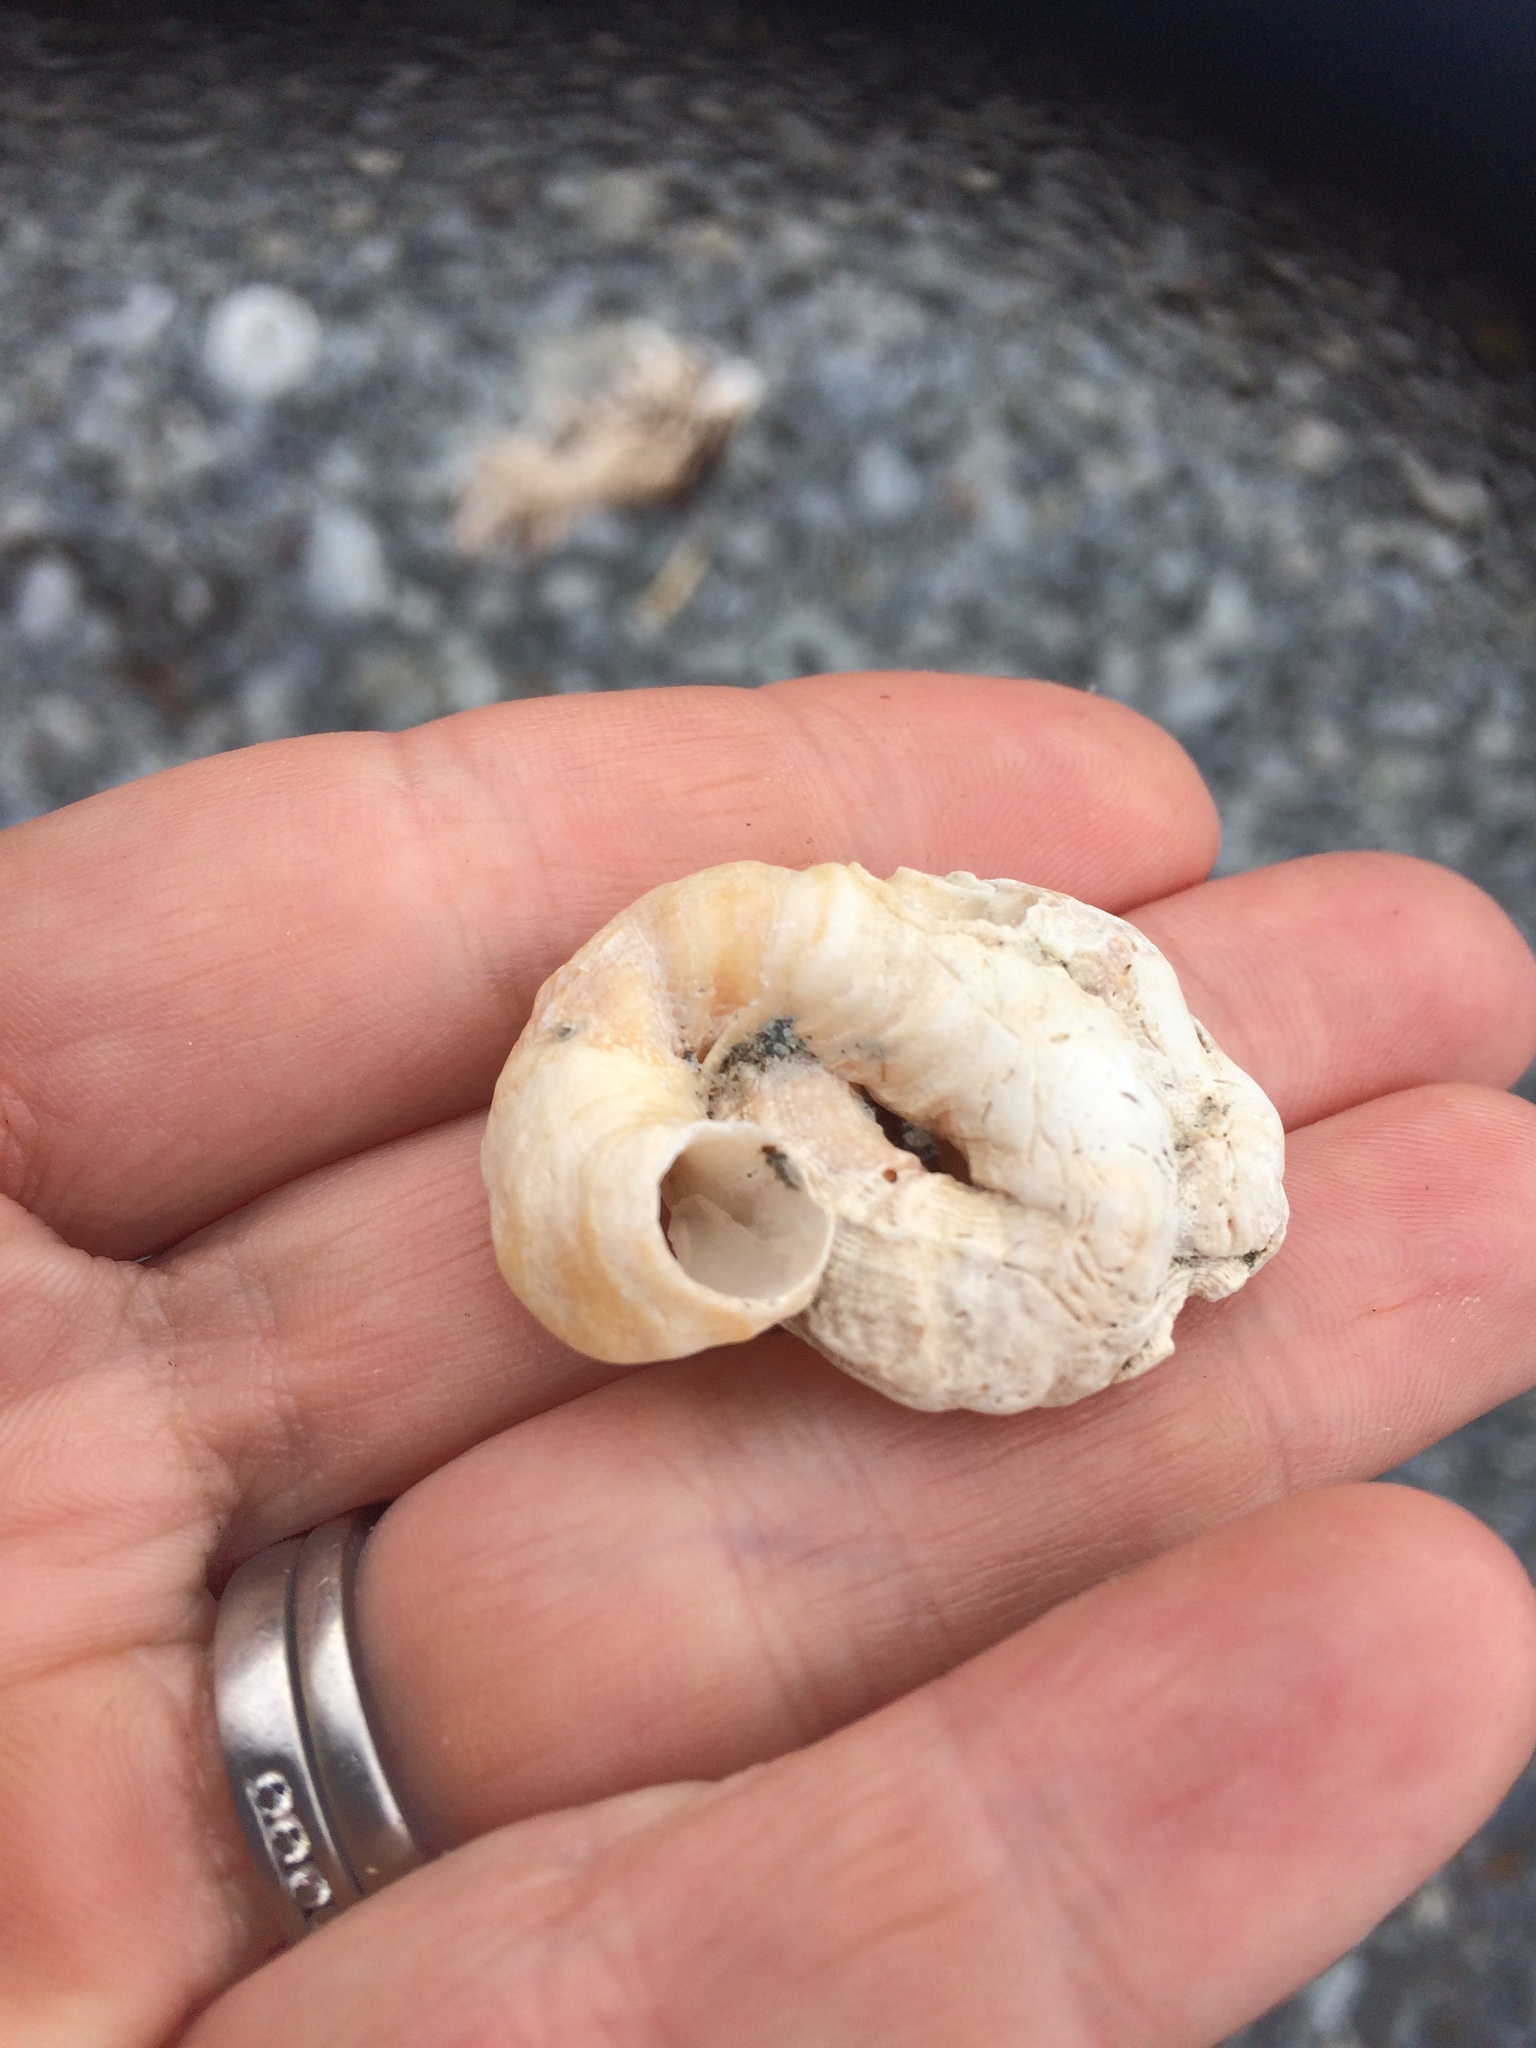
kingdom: Animalia
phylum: Mollusca
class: Gastropoda
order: Littorinimorpha
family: Vermetidae
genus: Thylacodes
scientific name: Thylacodes zelandicus
